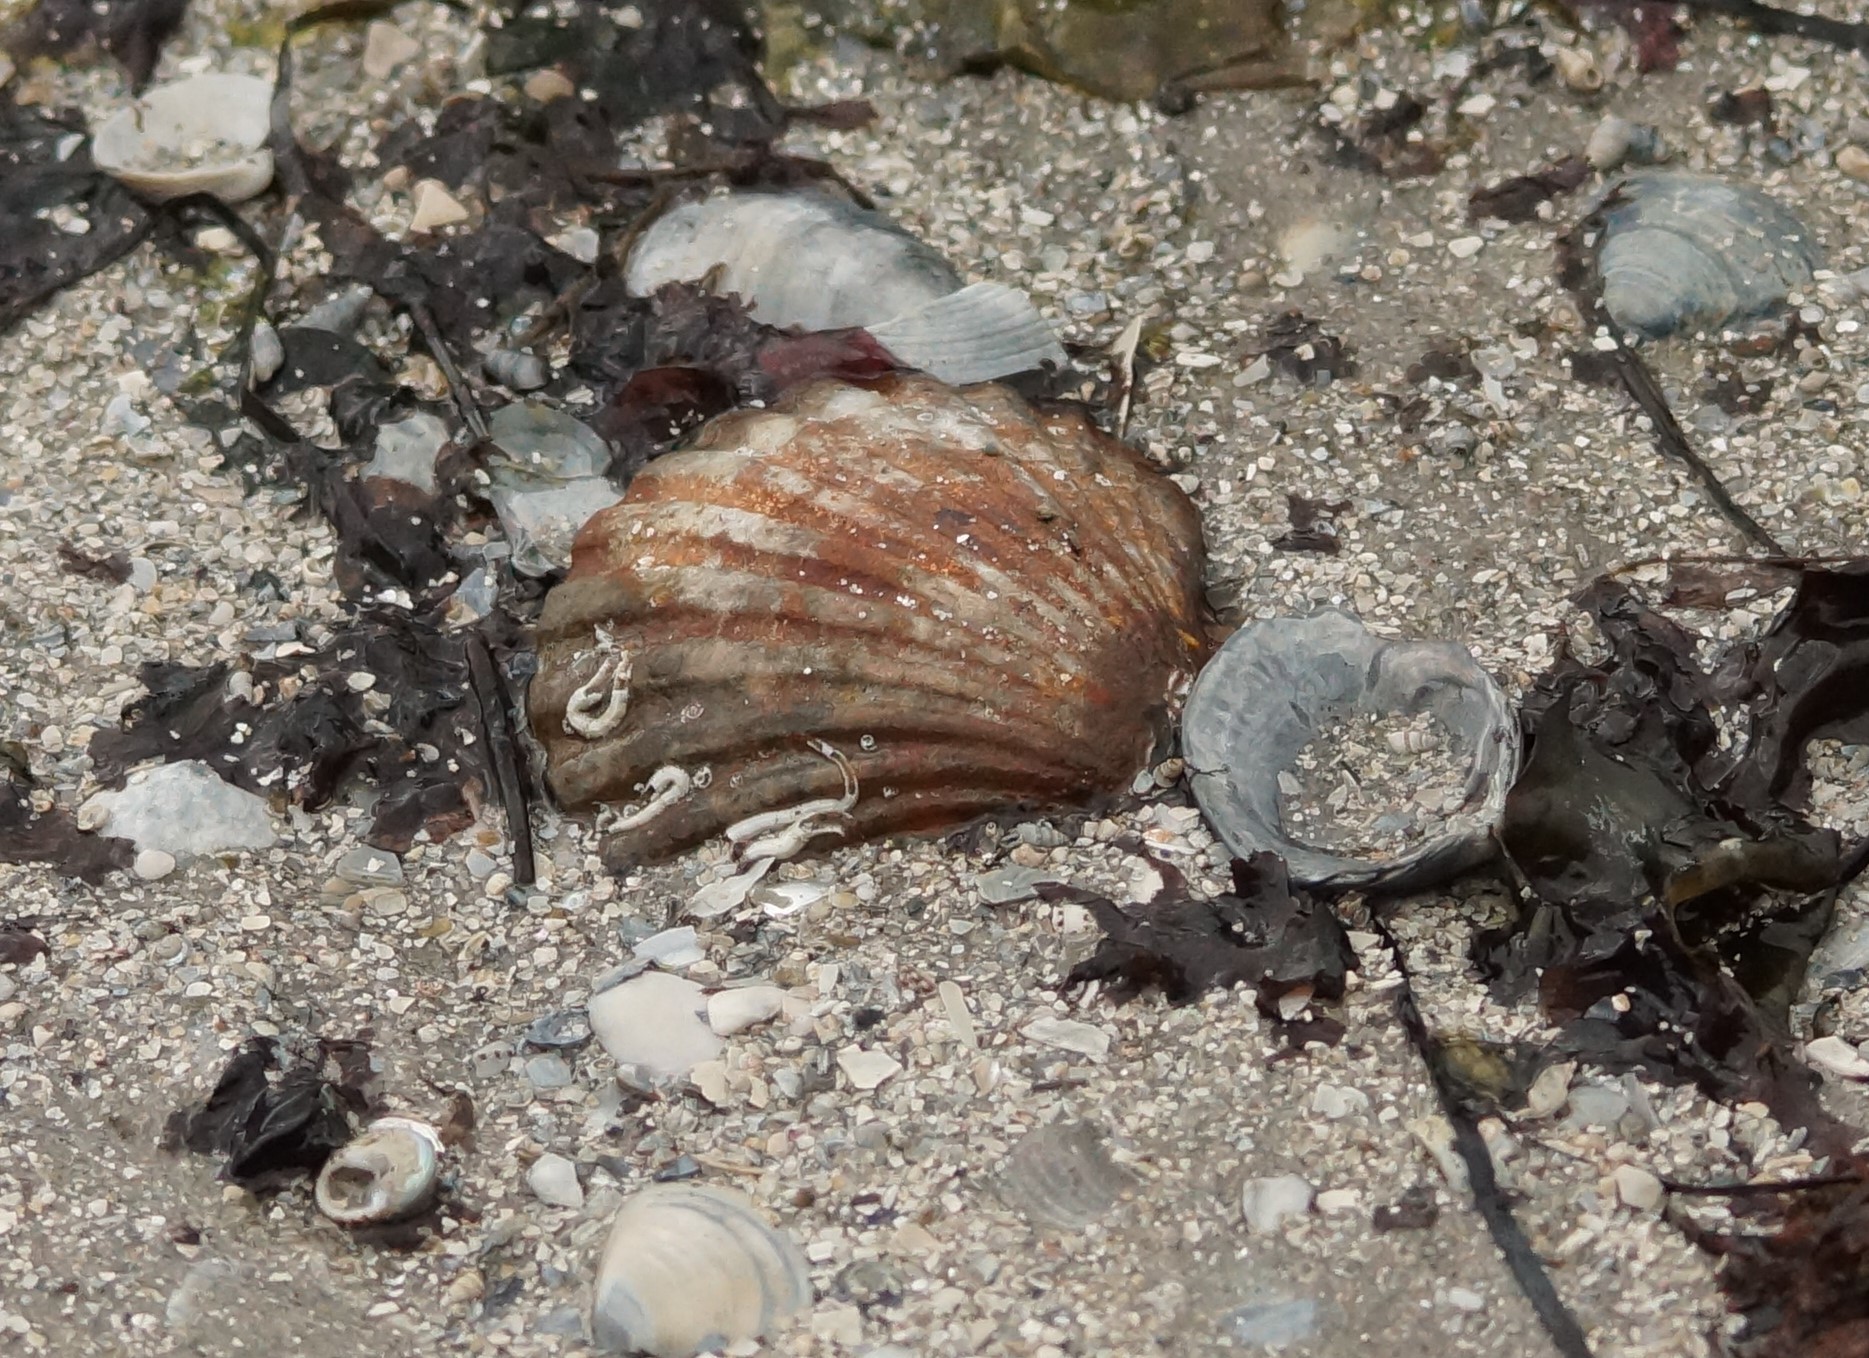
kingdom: Animalia
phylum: Mollusca
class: Bivalvia
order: Pectinida
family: Pectinidae
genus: Pecten
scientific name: Pecten fumatus
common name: Australian scallop
